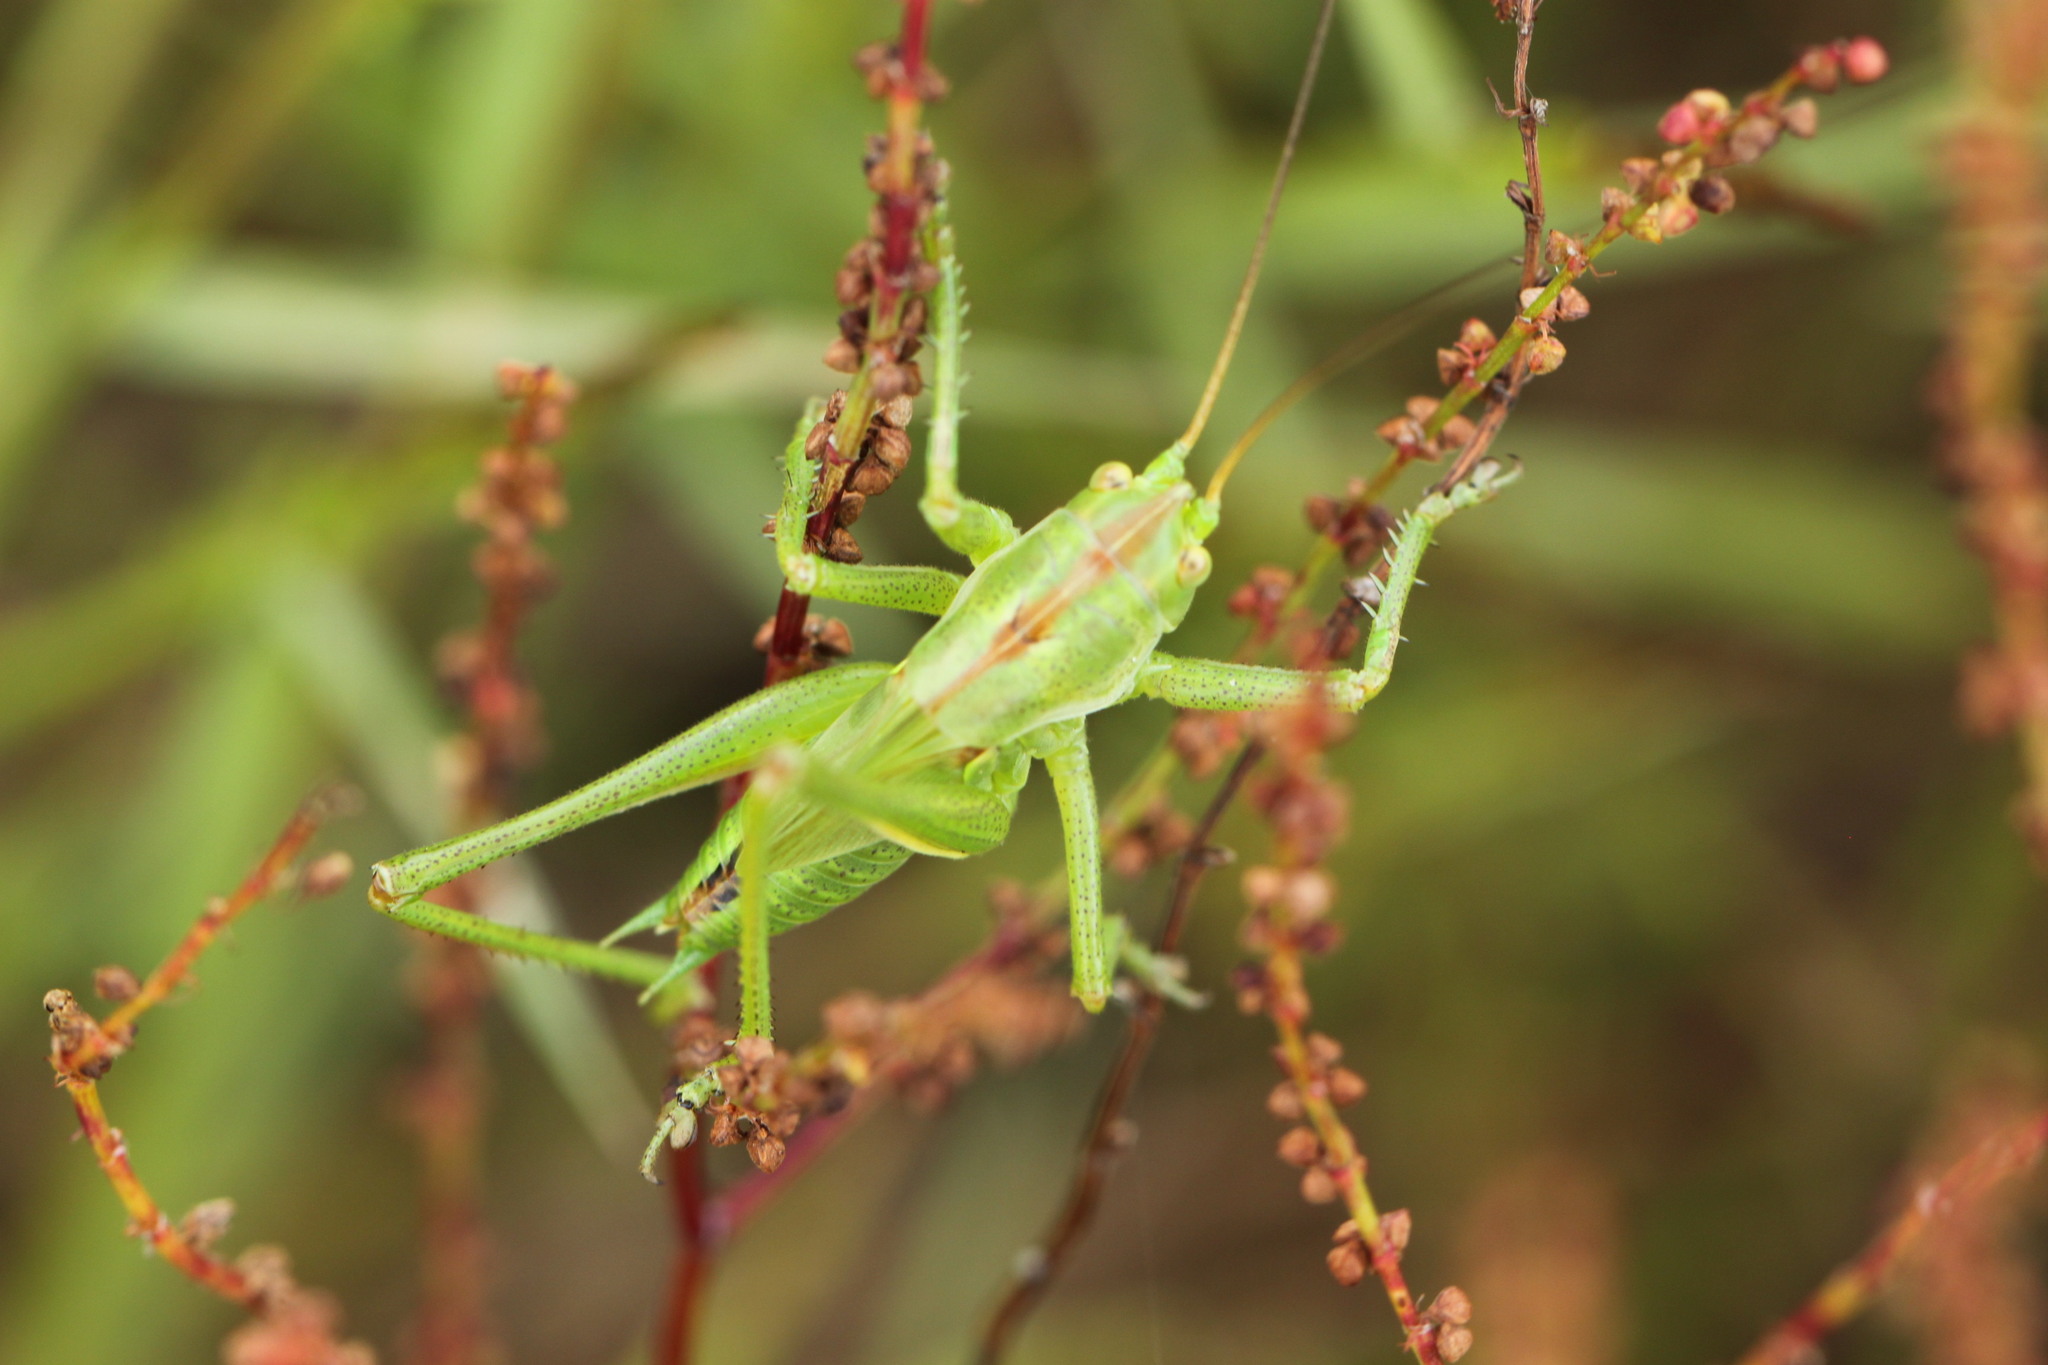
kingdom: Animalia
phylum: Arthropoda
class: Insecta
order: Orthoptera
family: Tettigoniidae
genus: Tettigonia
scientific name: Tettigonia viridissima
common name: Great green bush-cricket
